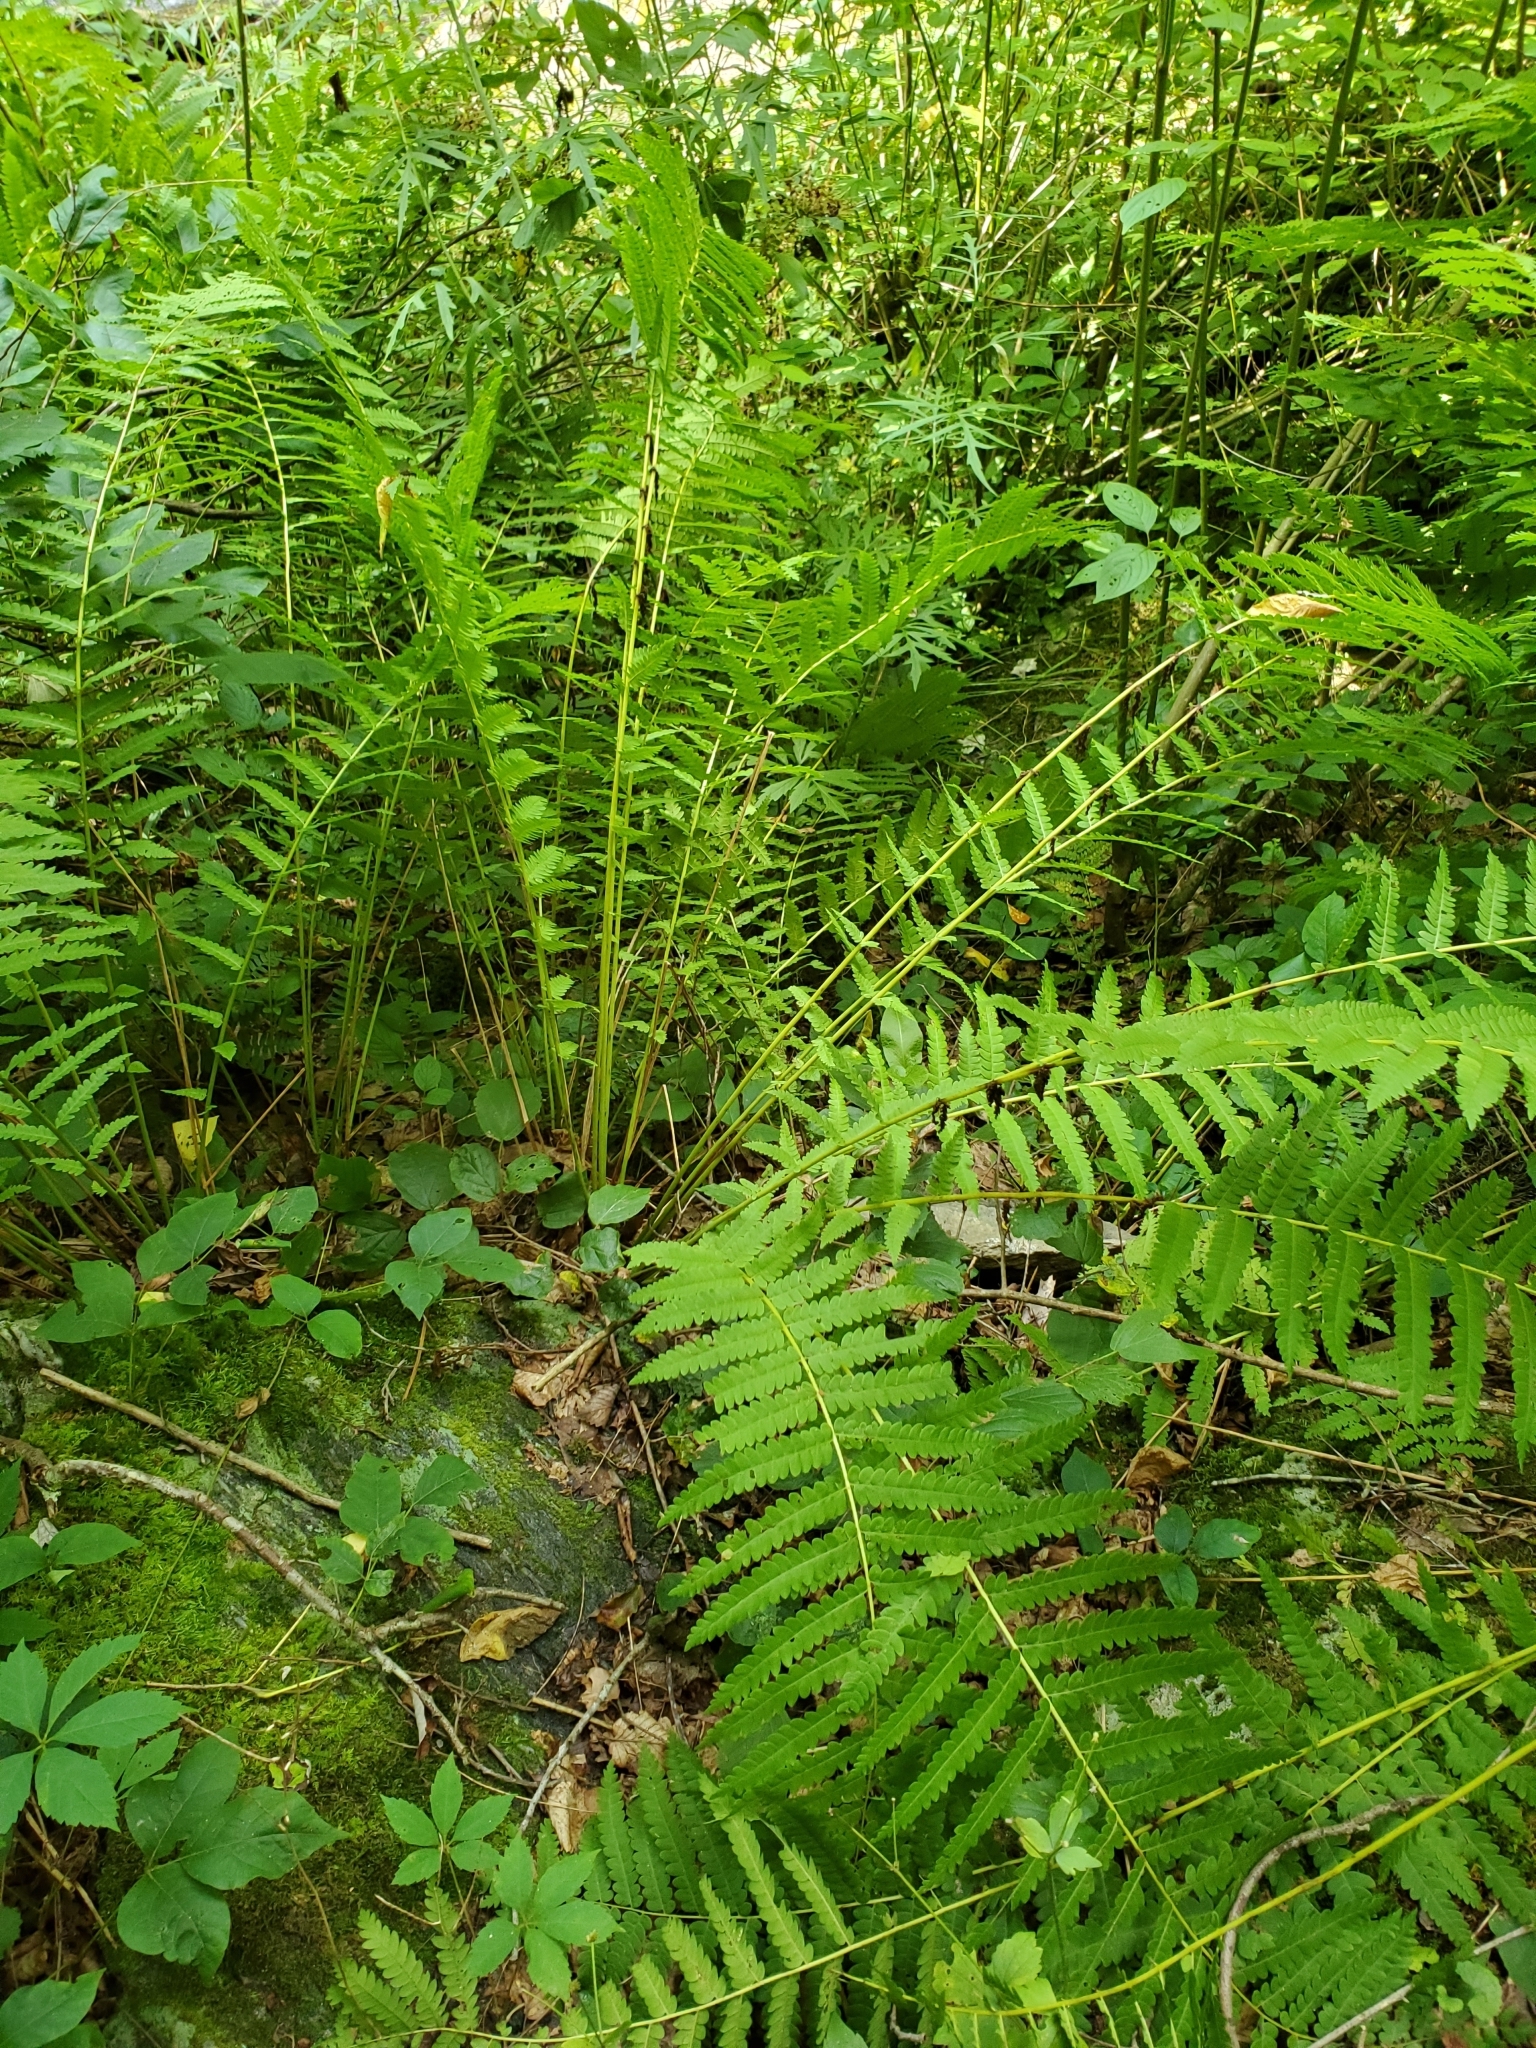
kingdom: Plantae
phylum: Tracheophyta
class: Polypodiopsida
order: Osmundales
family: Osmundaceae
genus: Claytosmunda
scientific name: Claytosmunda claytoniana
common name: Clayton's fern
